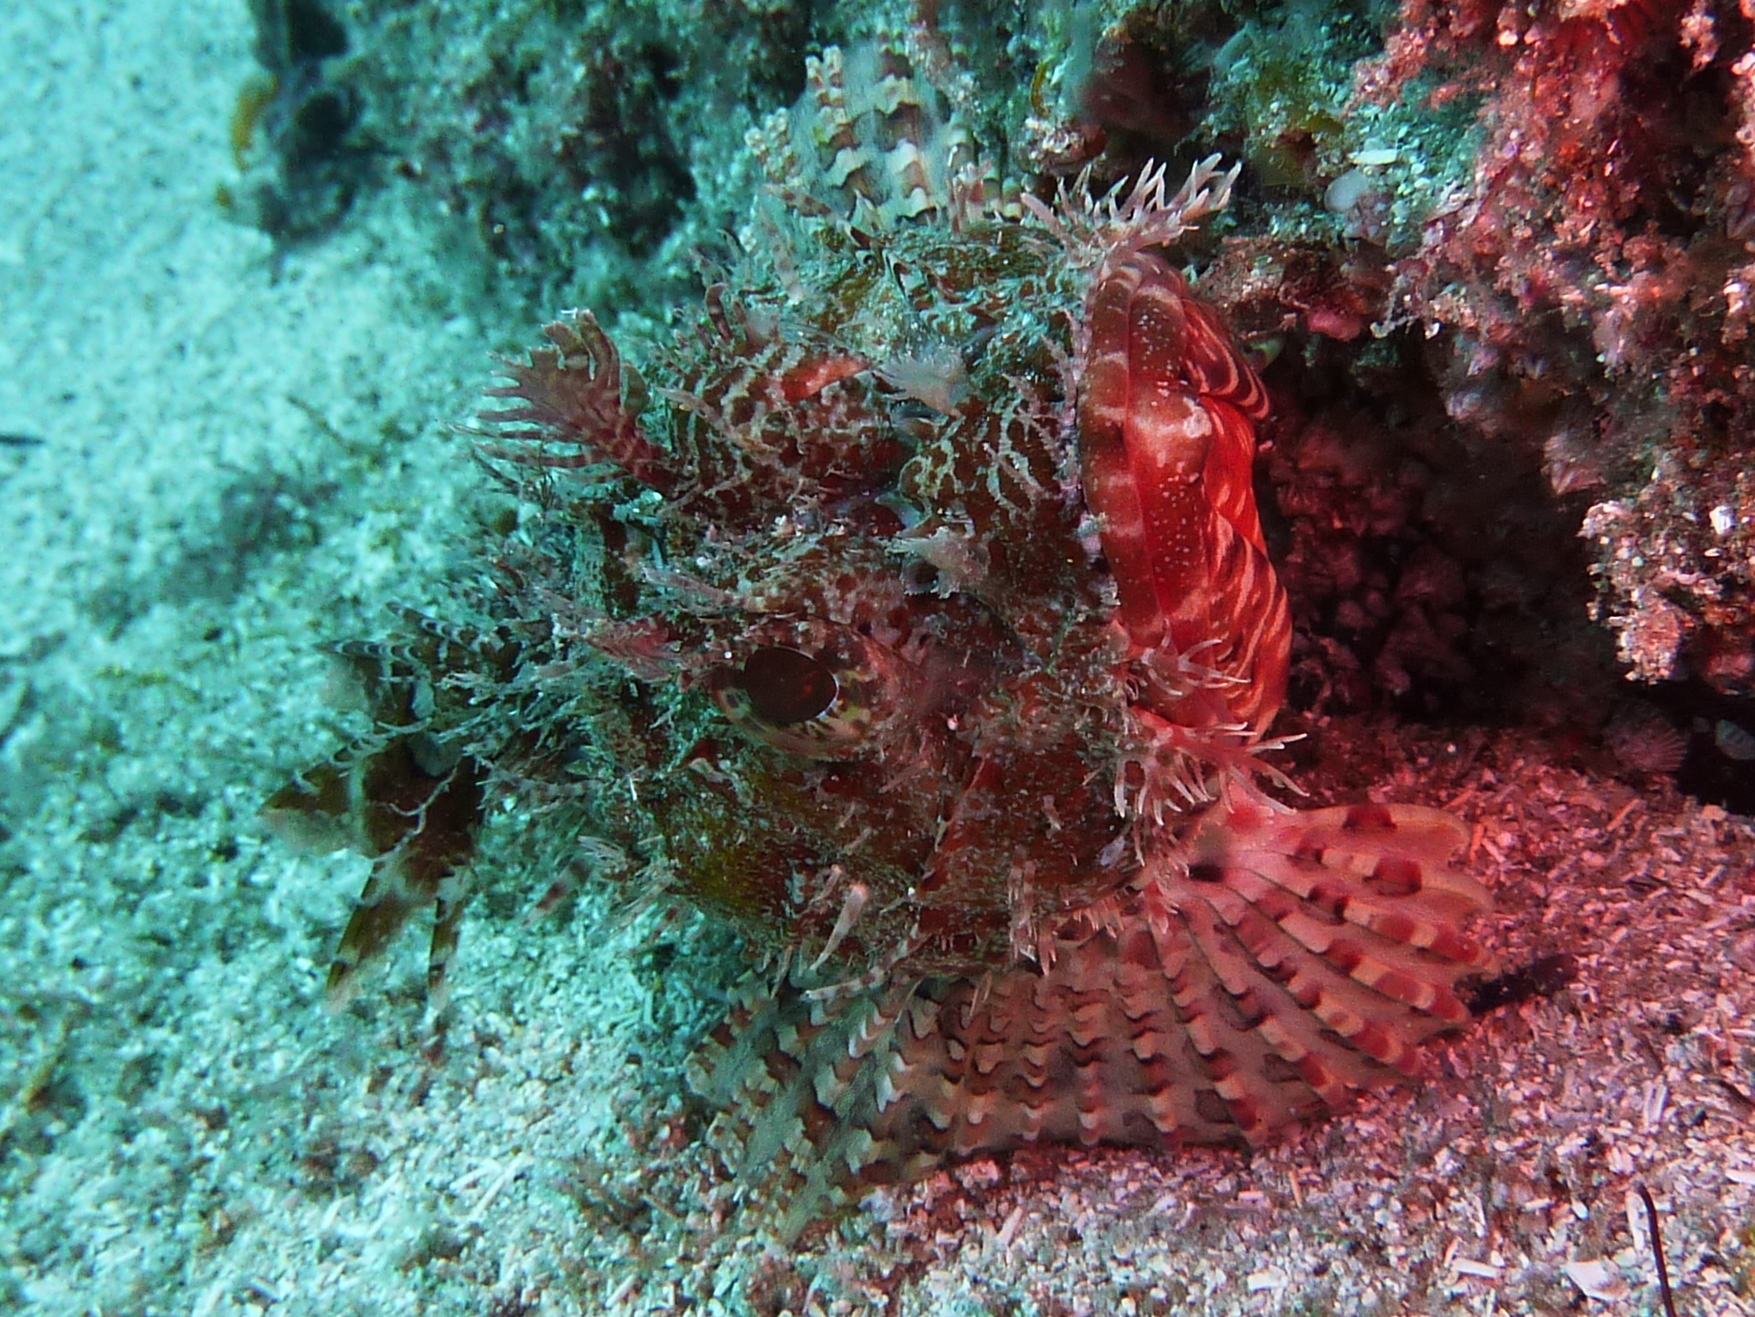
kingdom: Animalia
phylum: Chordata
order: Scorpaeniformes
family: Scorpaenidae
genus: Scorpaena
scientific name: Scorpaena jacksoniensis
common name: Eastern red scorpionfish
